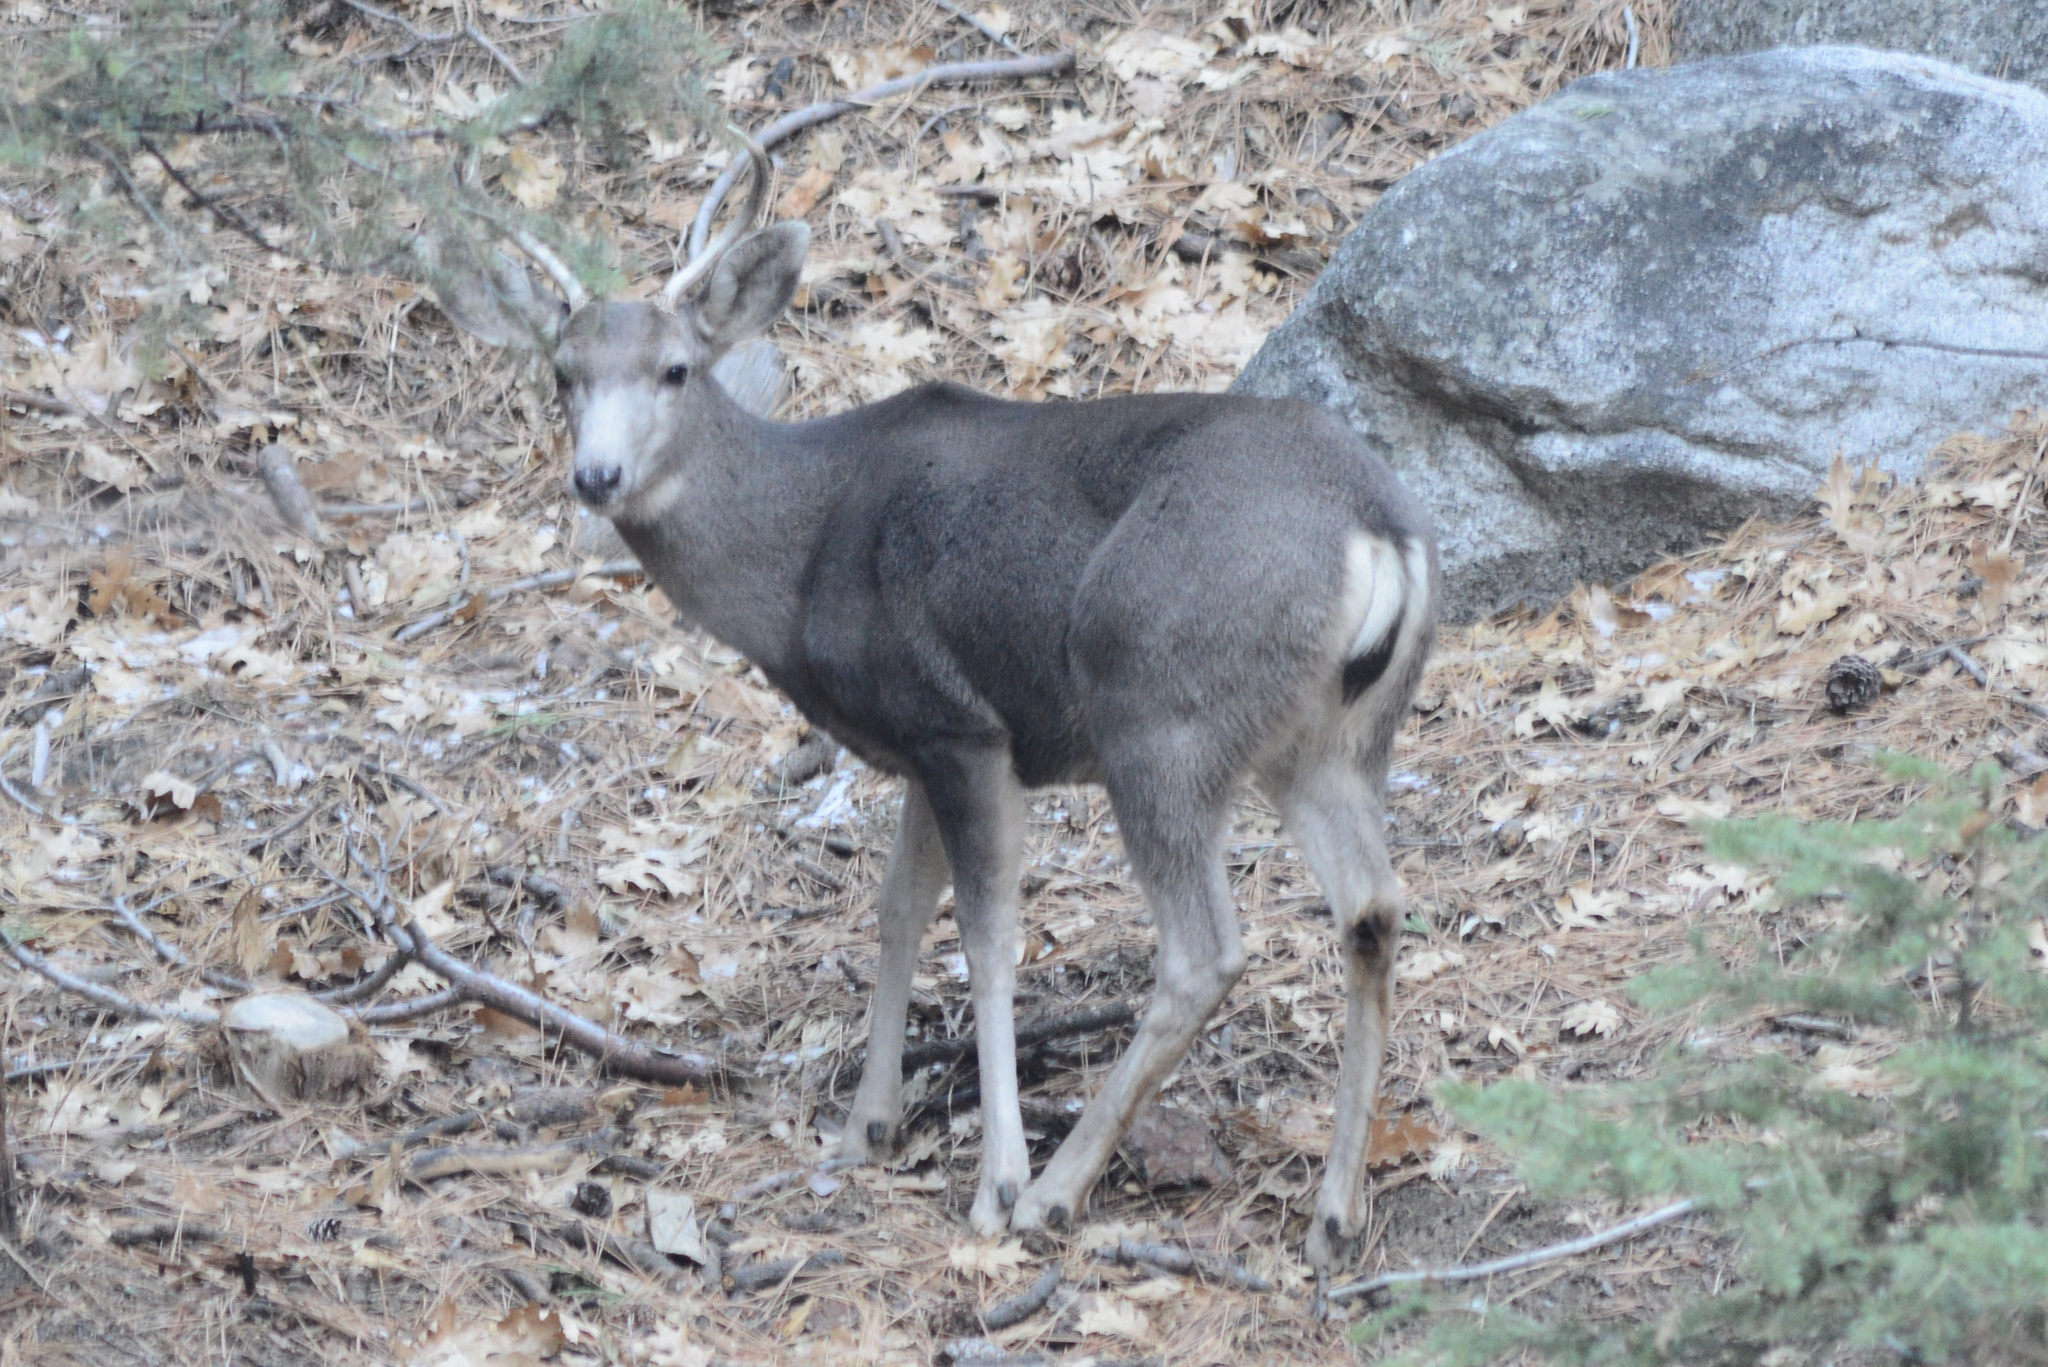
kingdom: Animalia
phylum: Chordata
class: Mammalia
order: Artiodactyla
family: Cervidae
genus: Odocoileus
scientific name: Odocoileus hemionus
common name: Mule deer
